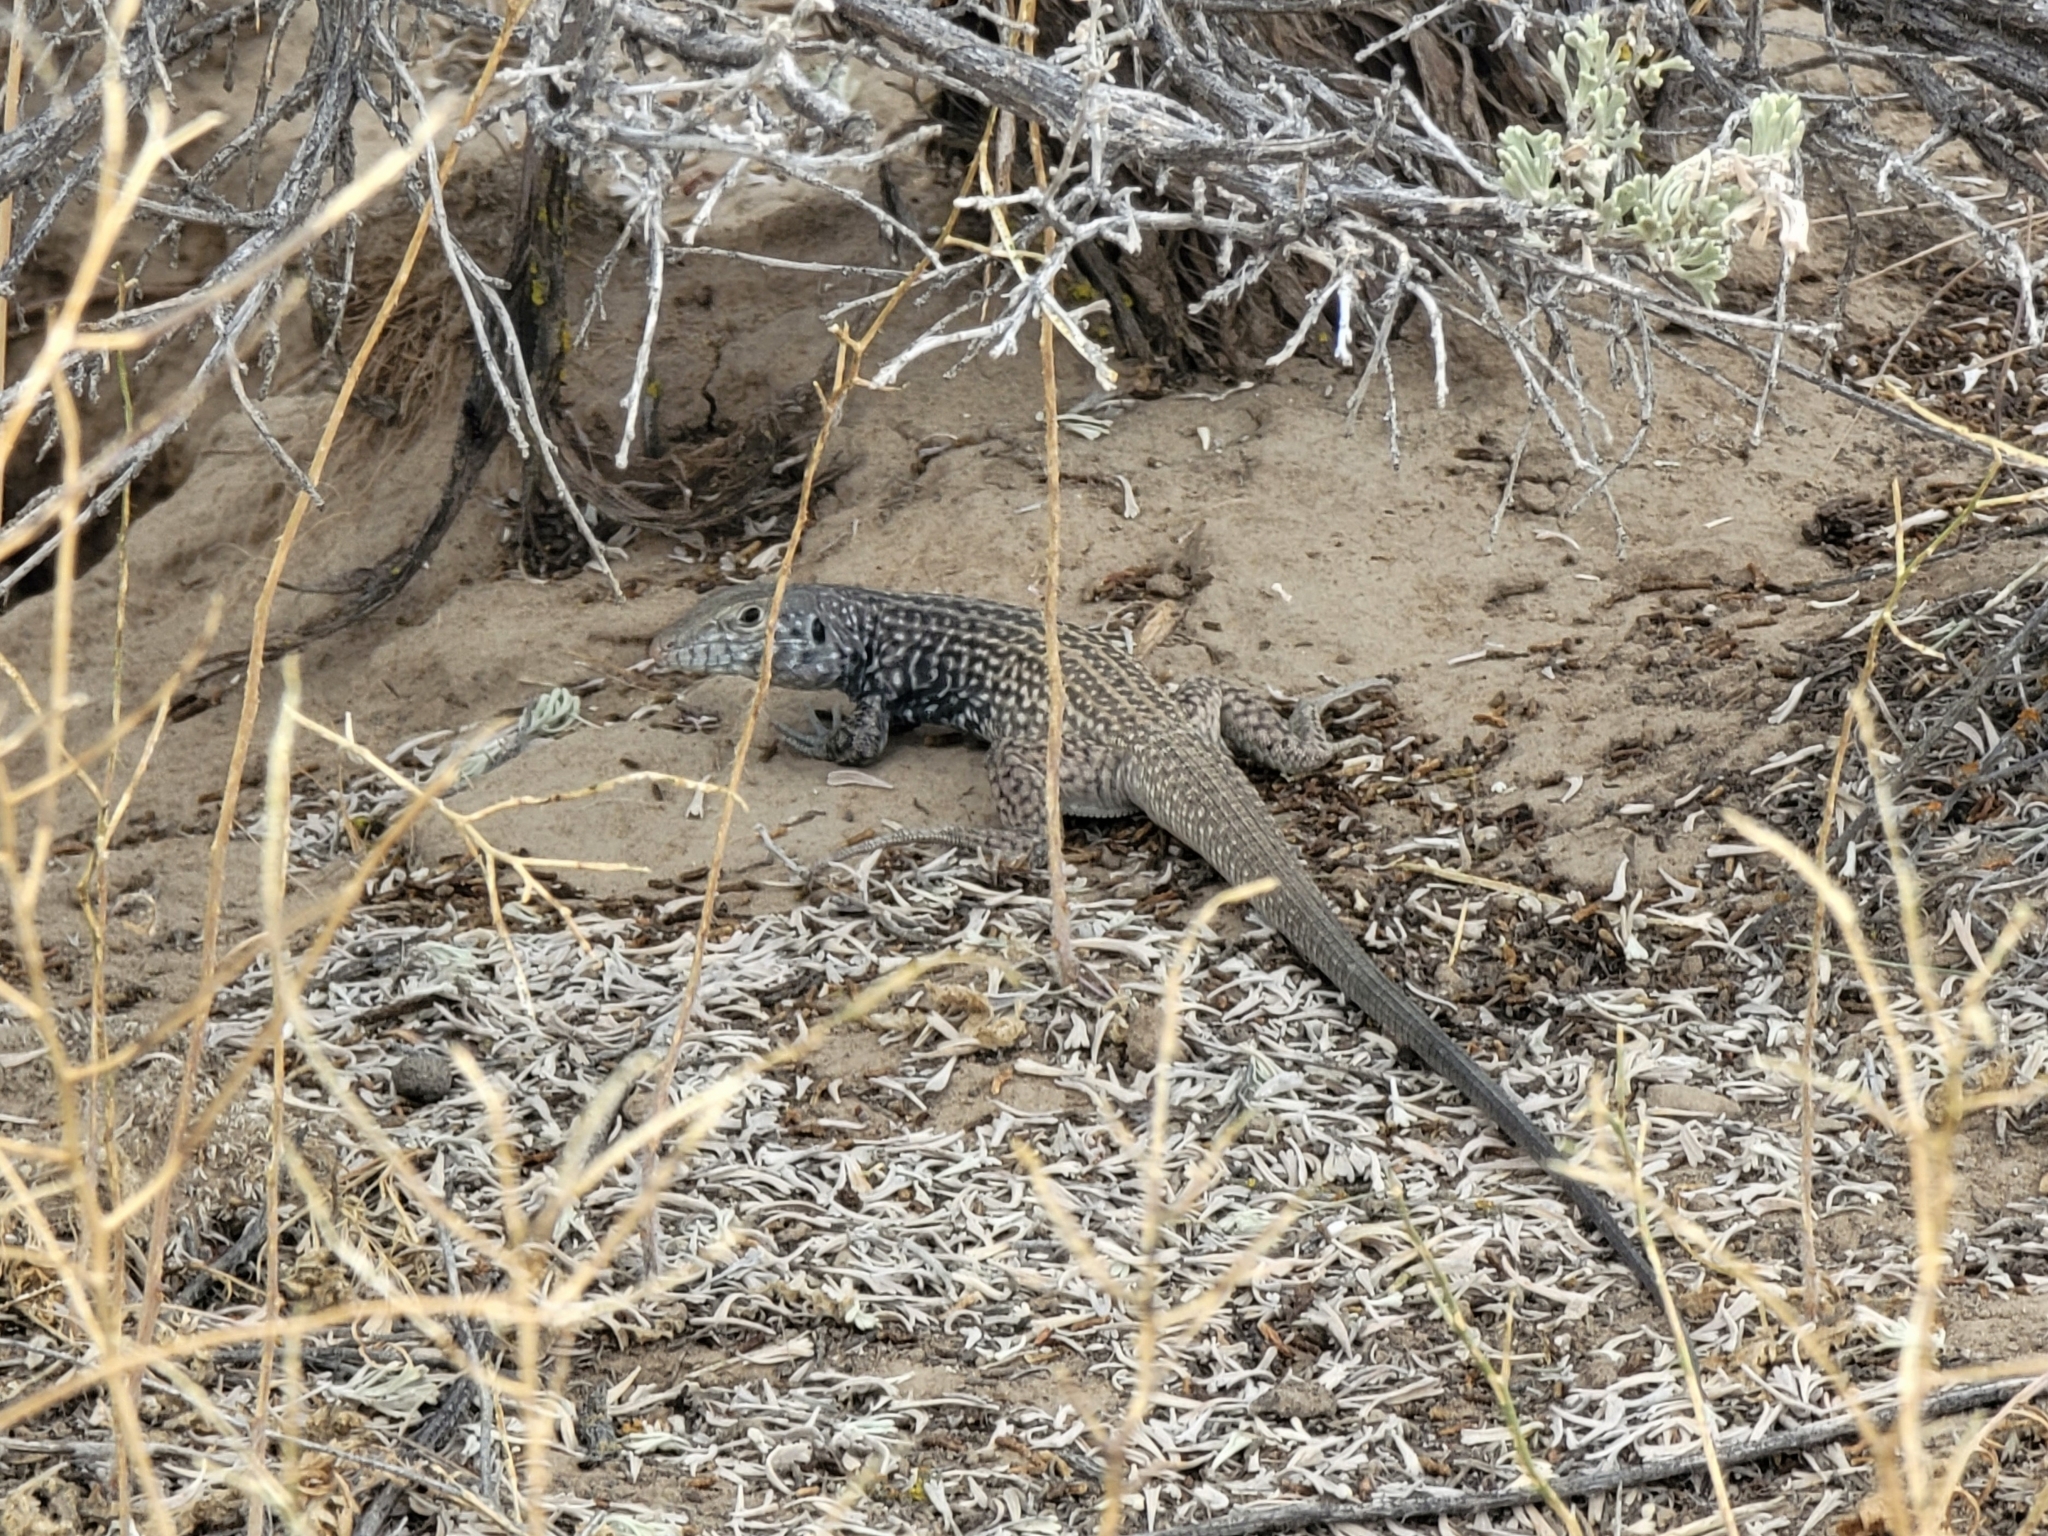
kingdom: Animalia
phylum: Chordata
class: Squamata
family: Teiidae
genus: Aspidoscelis
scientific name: Aspidoscelis tigris
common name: Tiger whiptail
